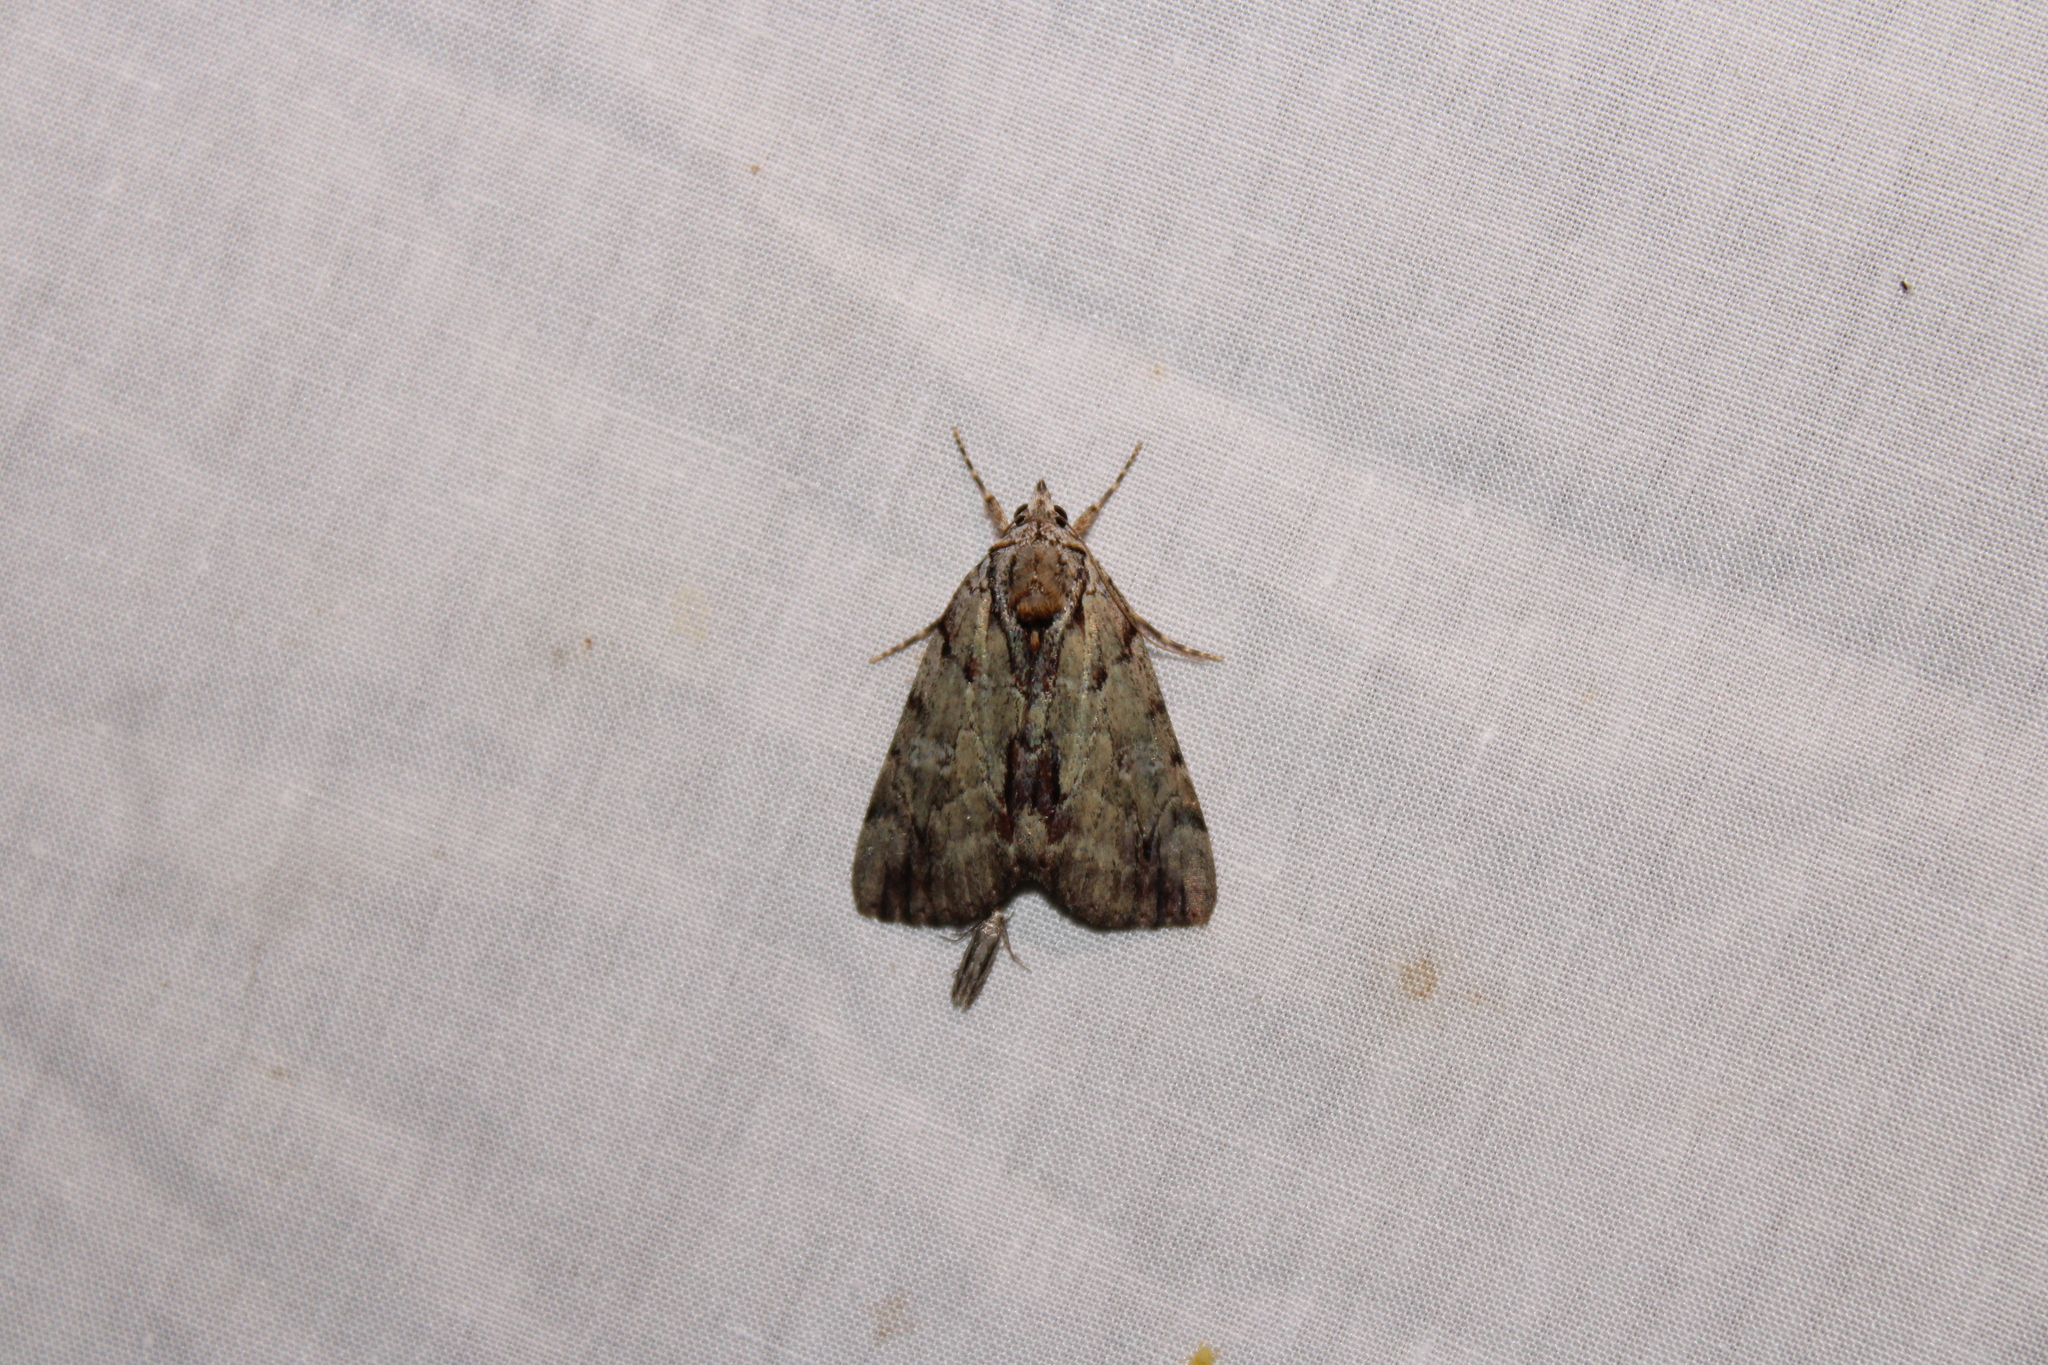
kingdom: Animalia
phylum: Arthropoda
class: Insecta
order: Lepidoptera
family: Erebidae
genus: Catocala
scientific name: Catocala praeclara
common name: Praeclara underwing
